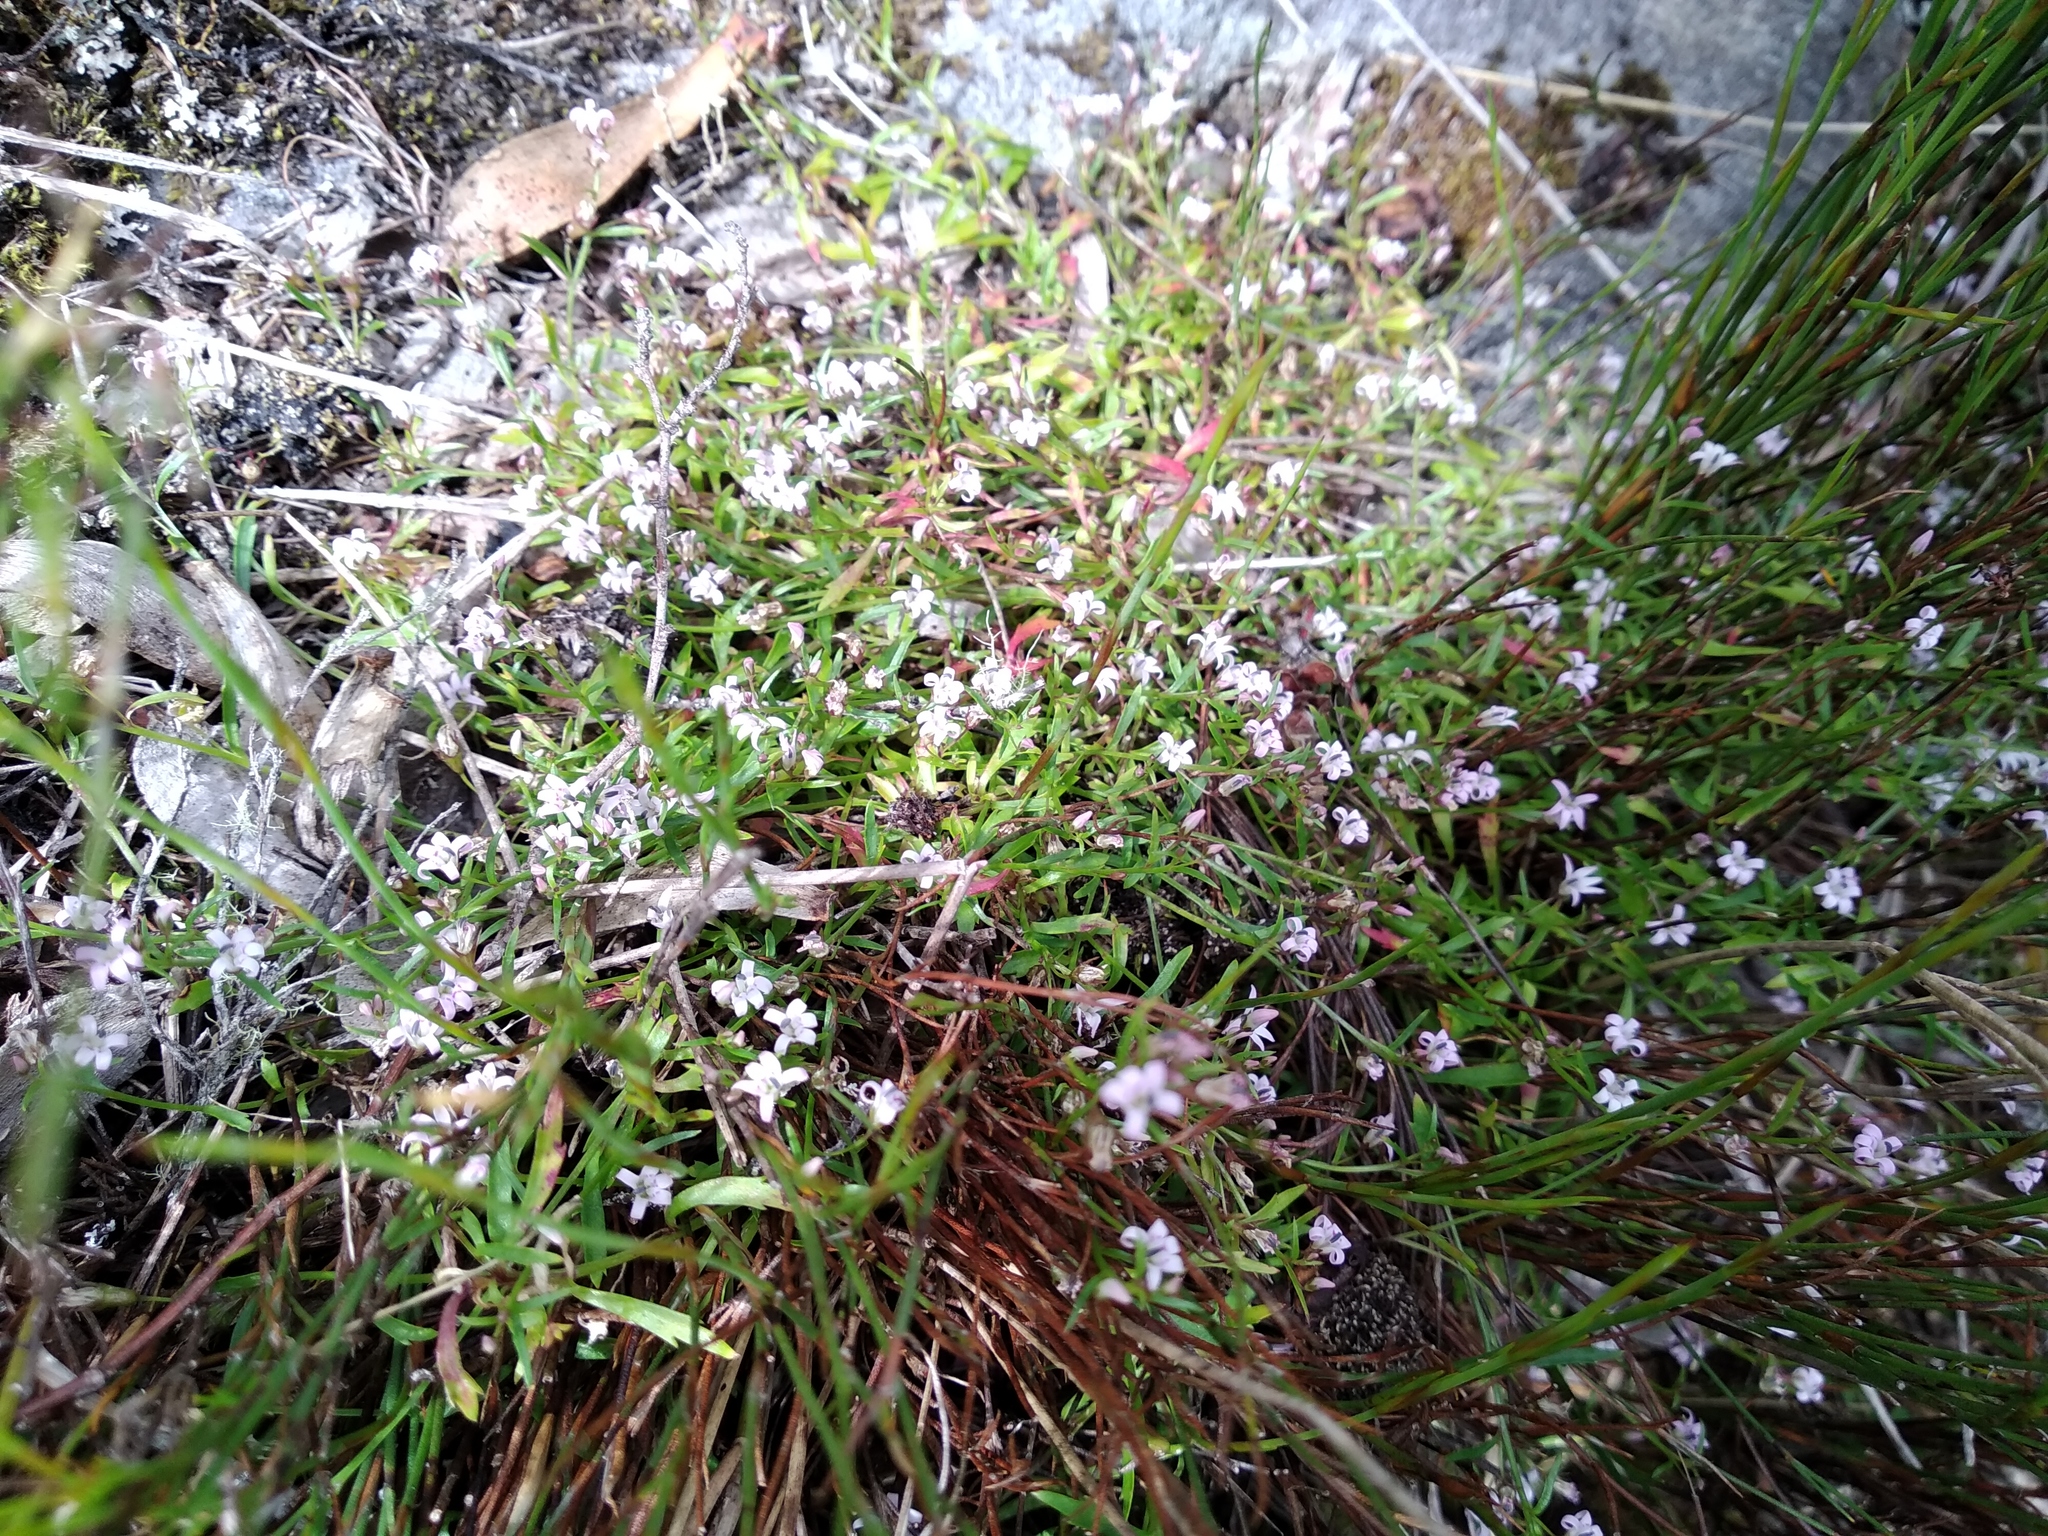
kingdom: Plantae
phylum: Tracheophyta
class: Magnoliopsida
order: Asterales
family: Campanulaceae
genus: Lobelia
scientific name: Lobelia eckloniana
